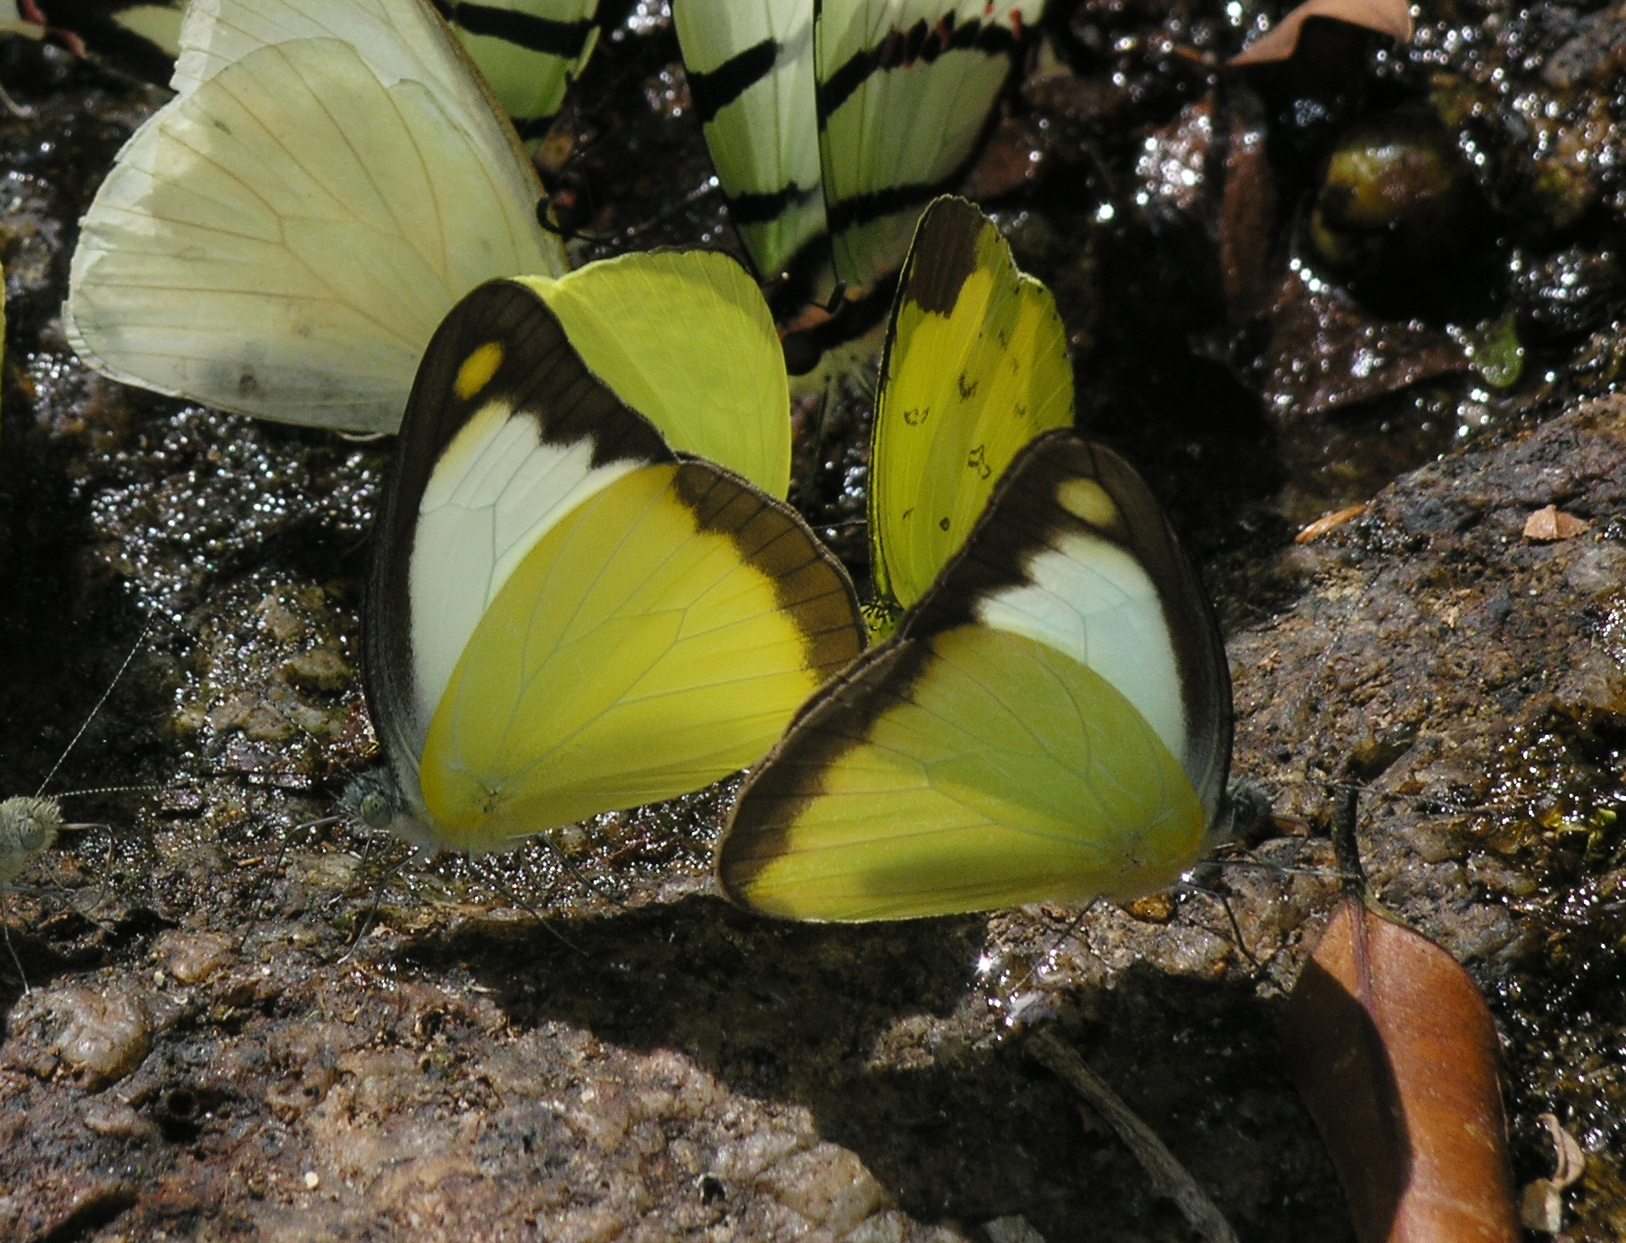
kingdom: Animalia
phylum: Arthropoda
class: Insecta
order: Lepidoptera
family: Pieridae
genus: Appias
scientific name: Appias lyncida
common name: Chocolate albatross
